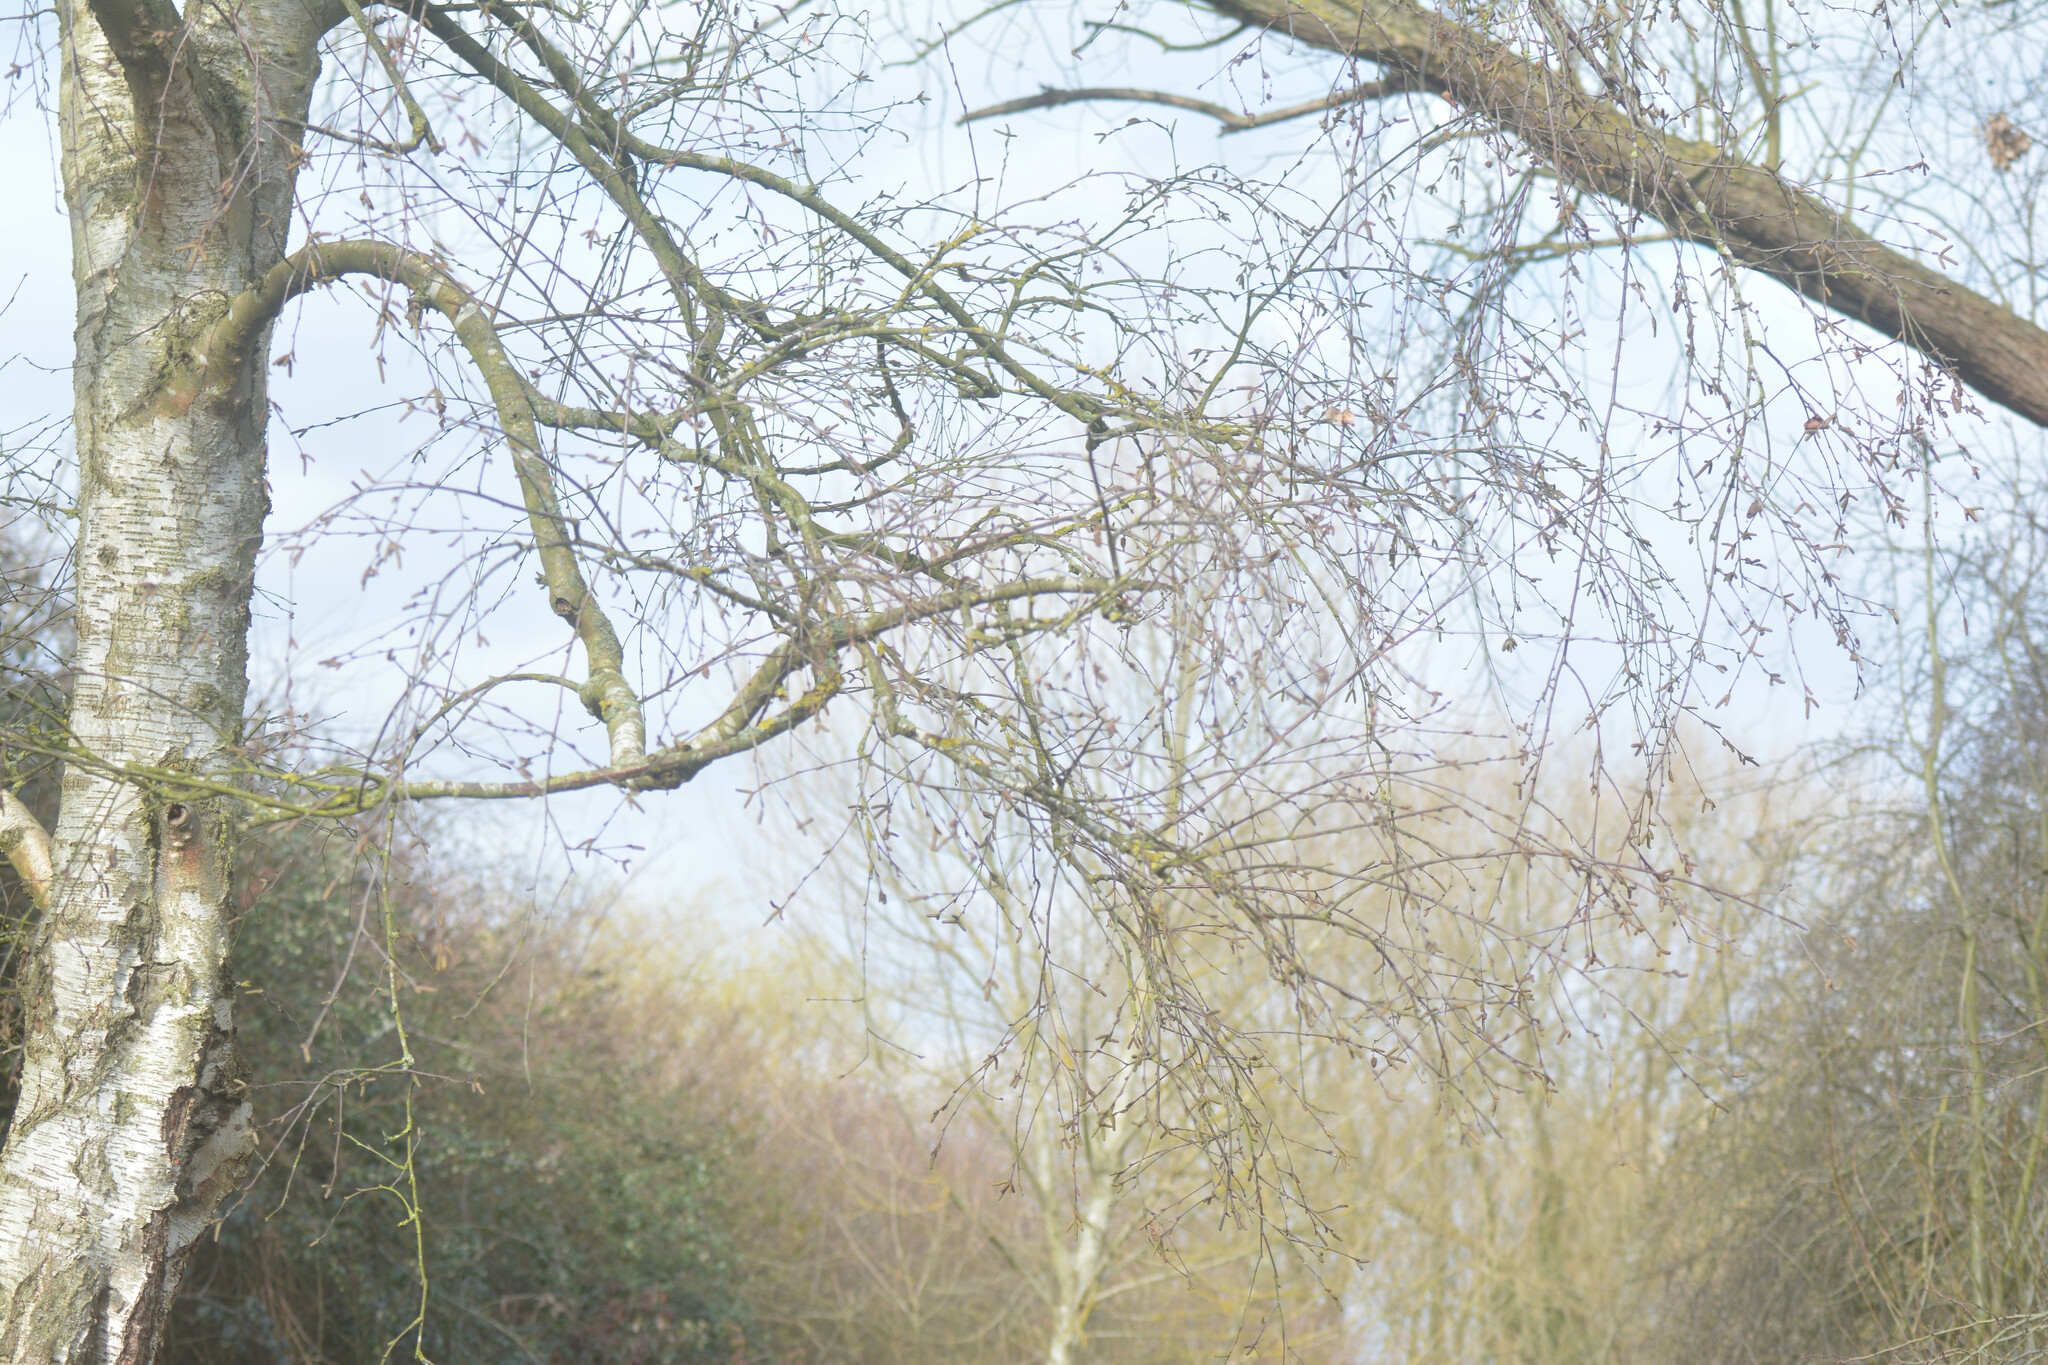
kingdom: Plantae
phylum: Tracheophyta
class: Magnoliopsida
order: Fagales
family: Betulaceae
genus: Betula
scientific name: Betula pendula
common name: Silver birch
